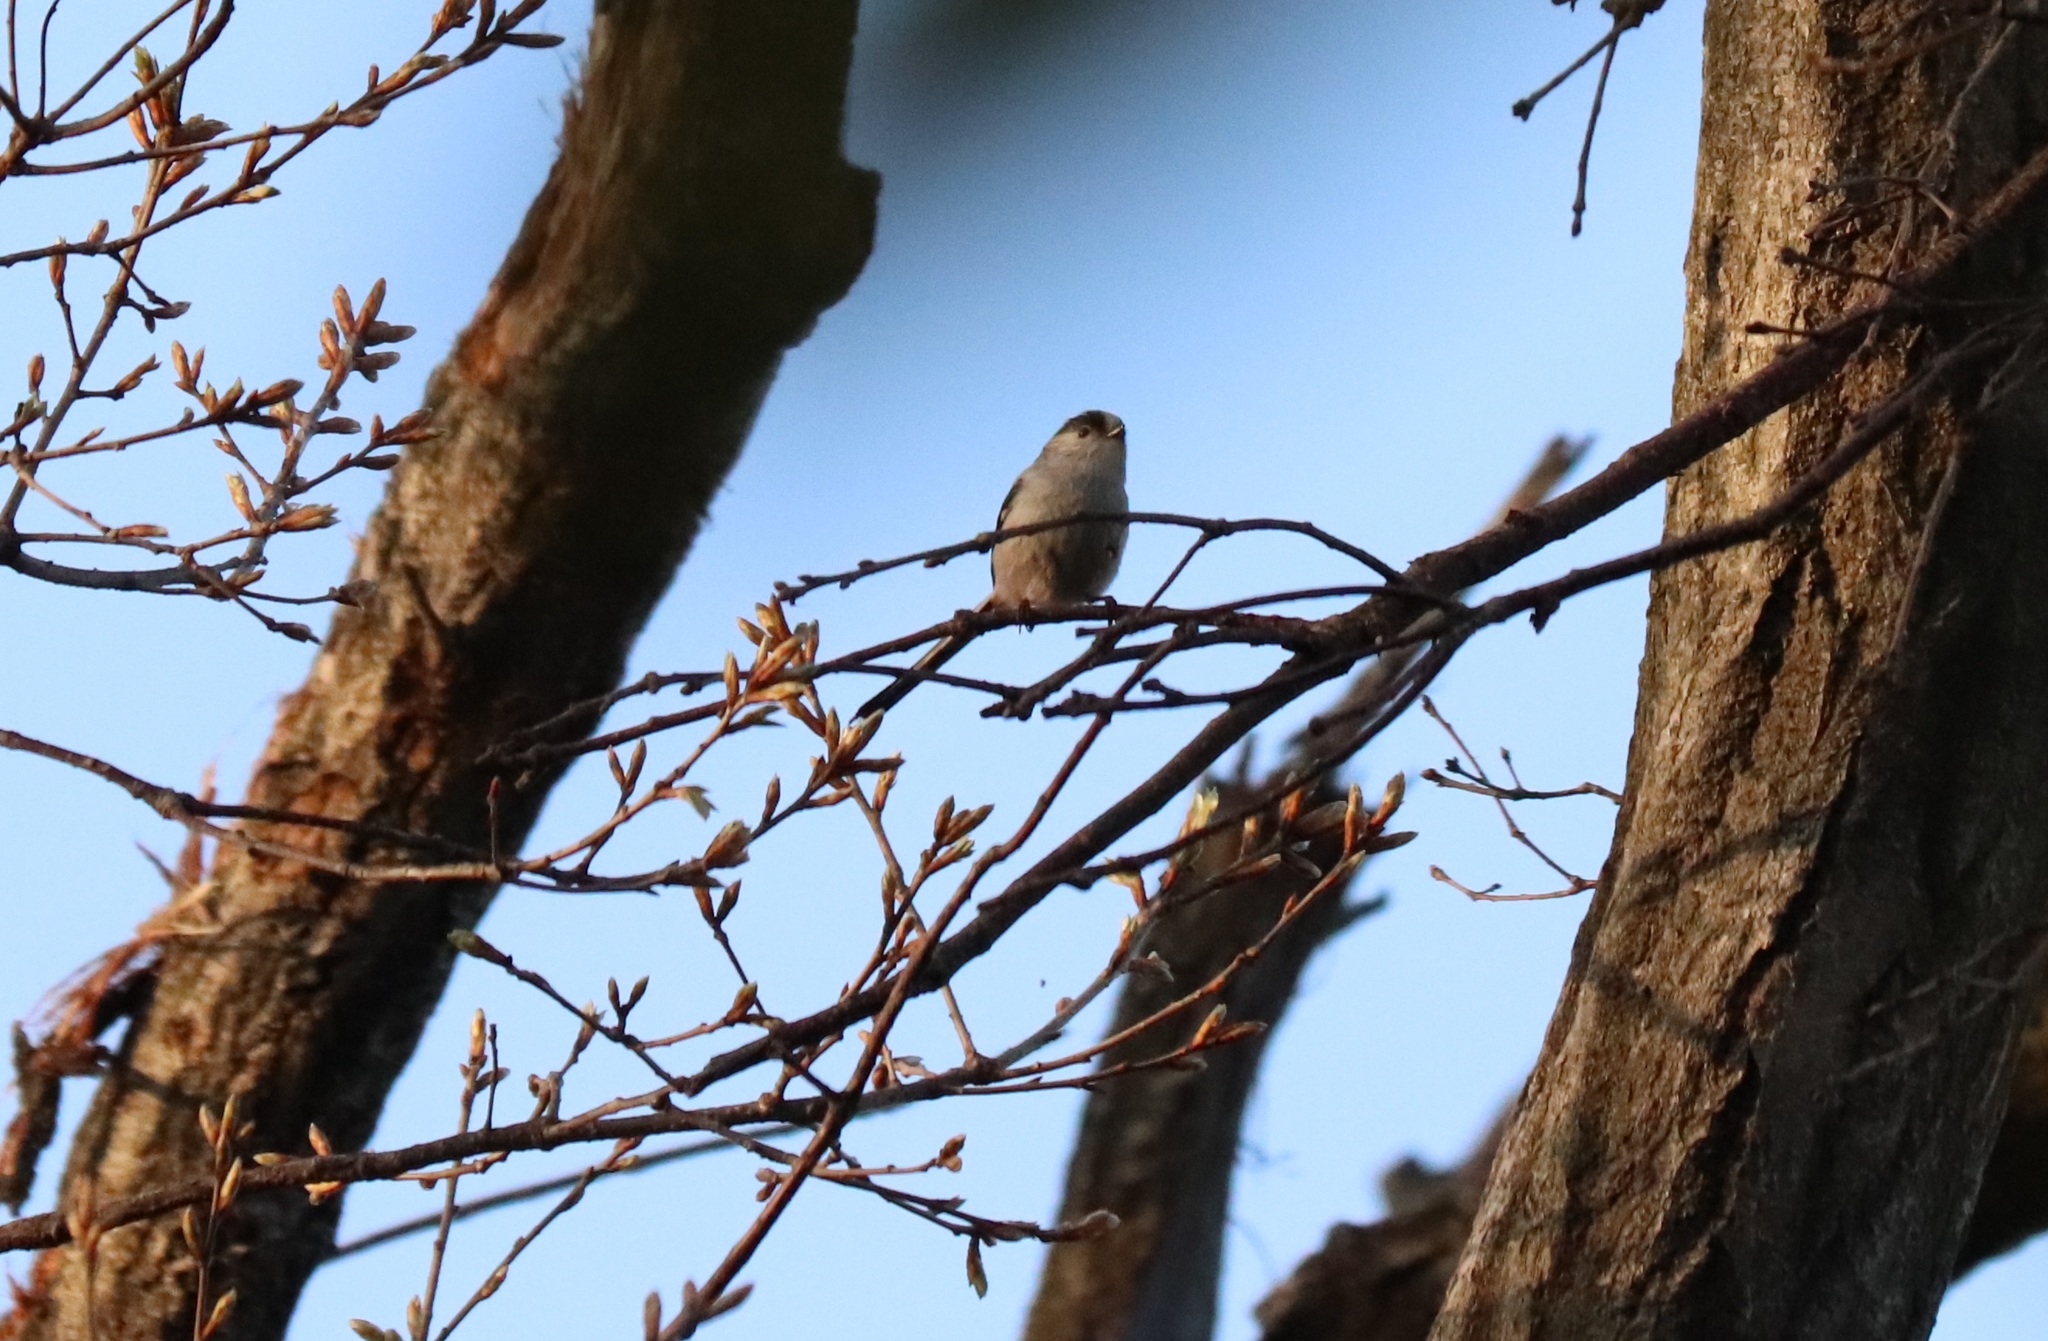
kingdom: Animalia
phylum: Chordata
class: Aves
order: Passeriformes
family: Aegithalidae
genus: Aegithalos
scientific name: Aegithalos caudatus
